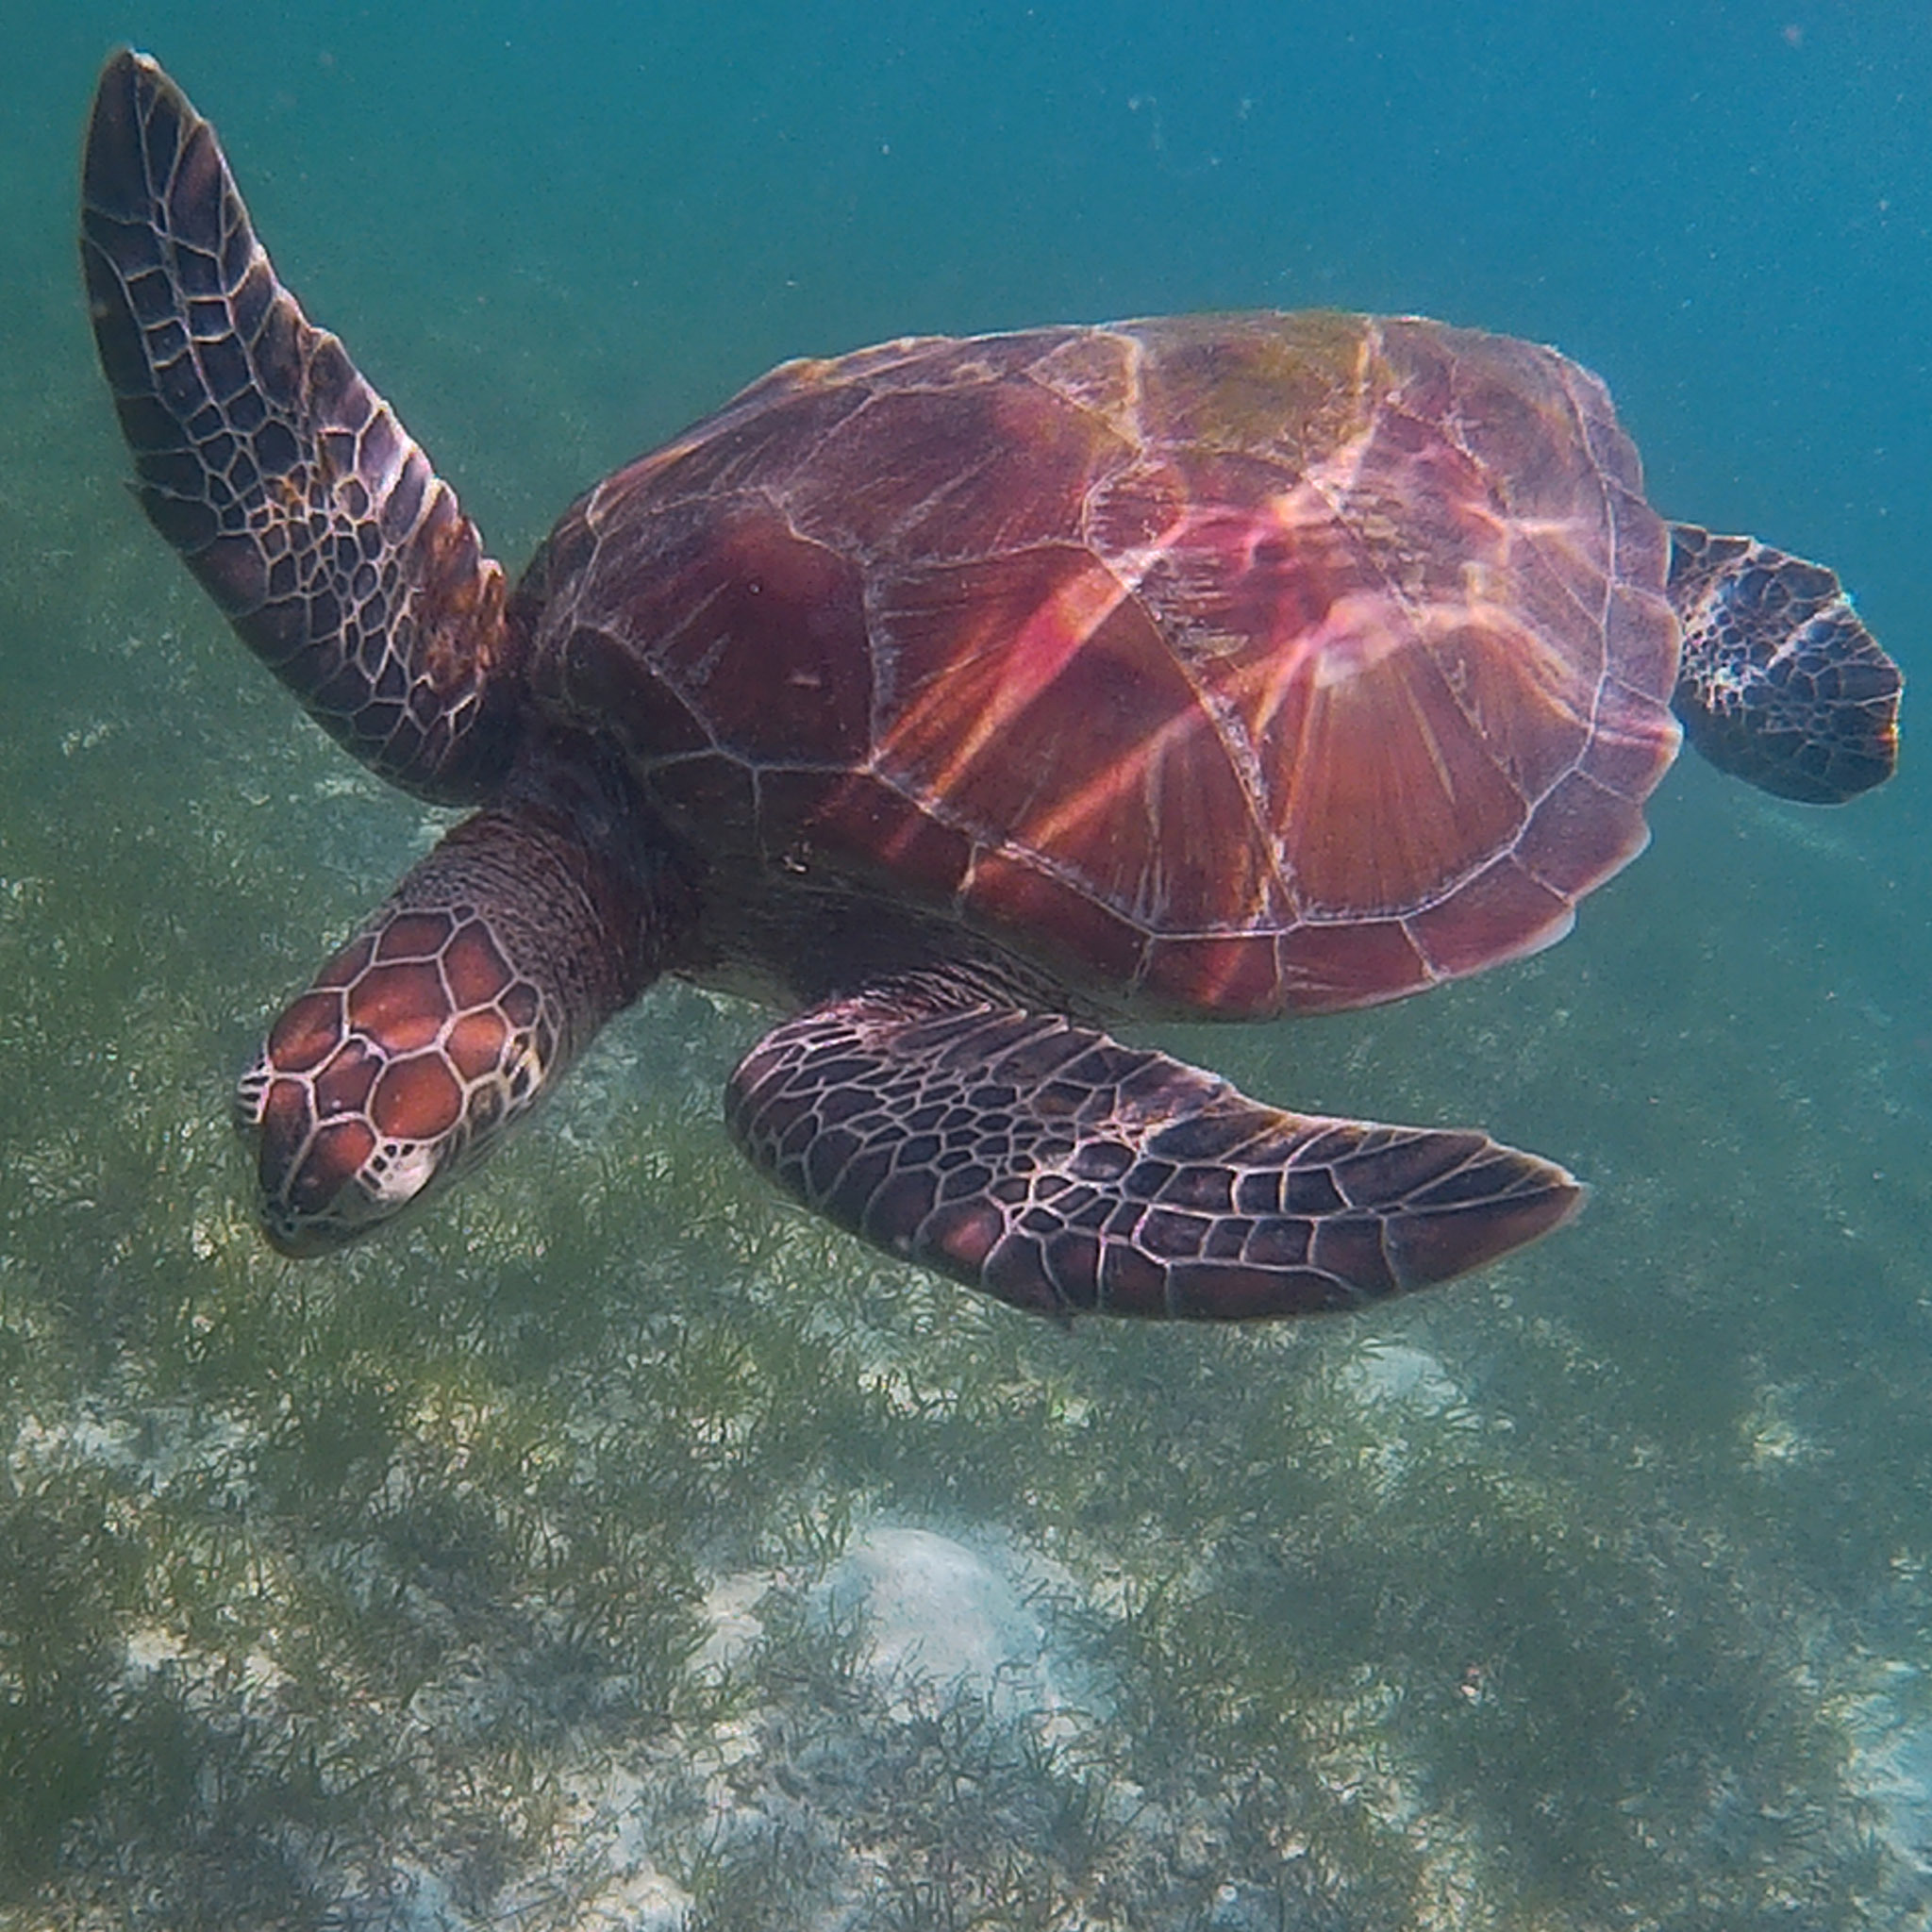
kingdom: Animalia
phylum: Chordata
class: Testudines
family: Cheloniidae
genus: Chelonia
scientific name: Chelonia mydas
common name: Green turtle
